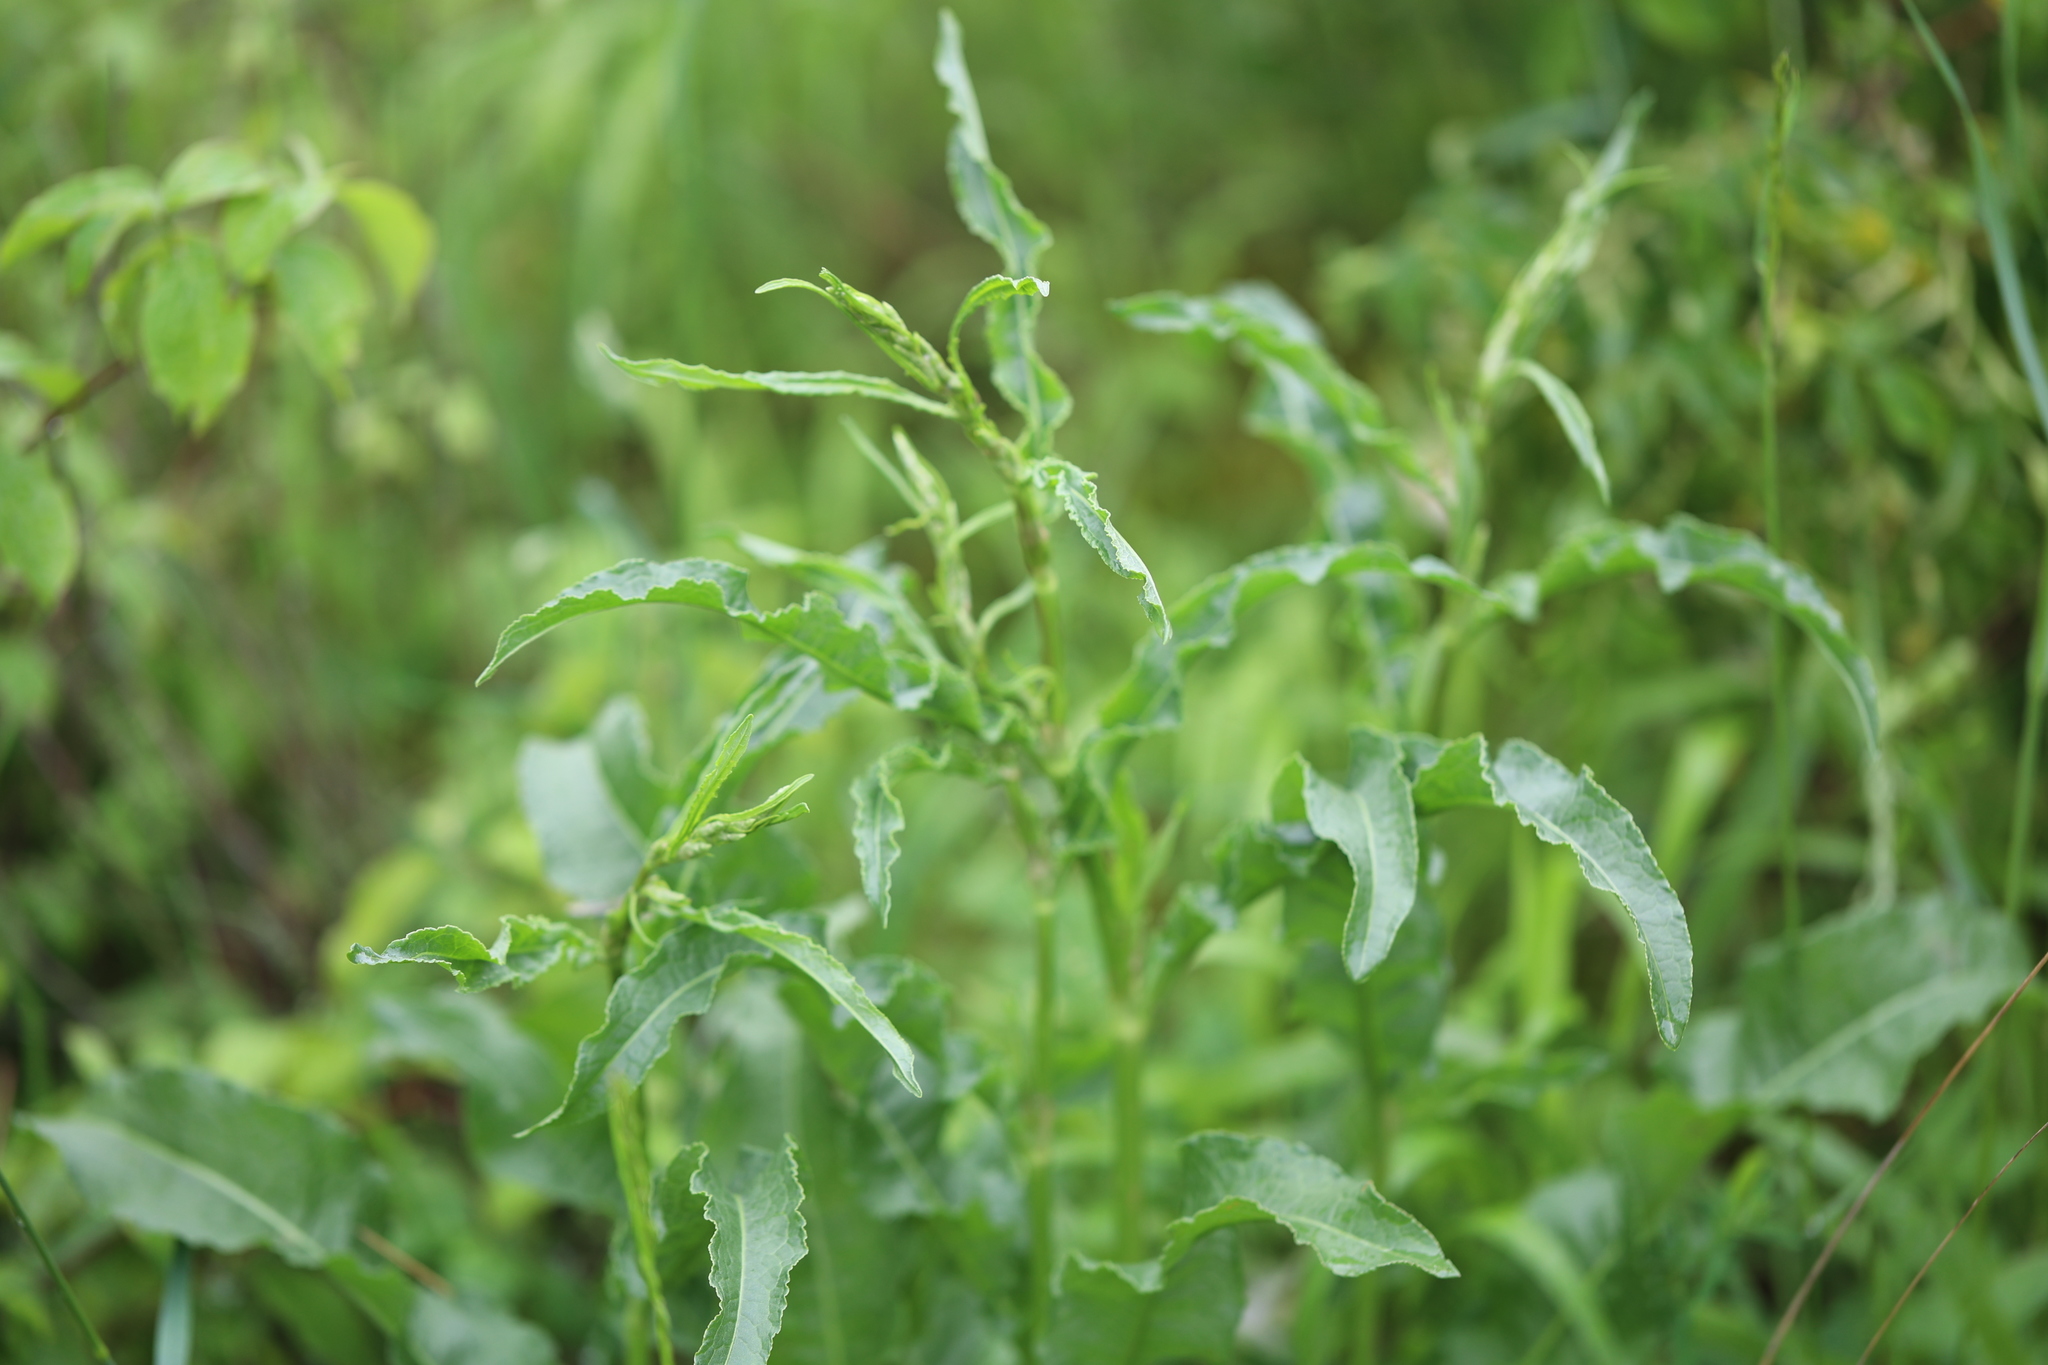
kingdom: Plantae
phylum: Tracheophyta
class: Magnoliopsida
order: Caryophyllales
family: Polygonaceae
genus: Rumex
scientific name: Rumex crispus
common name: Curled dock
